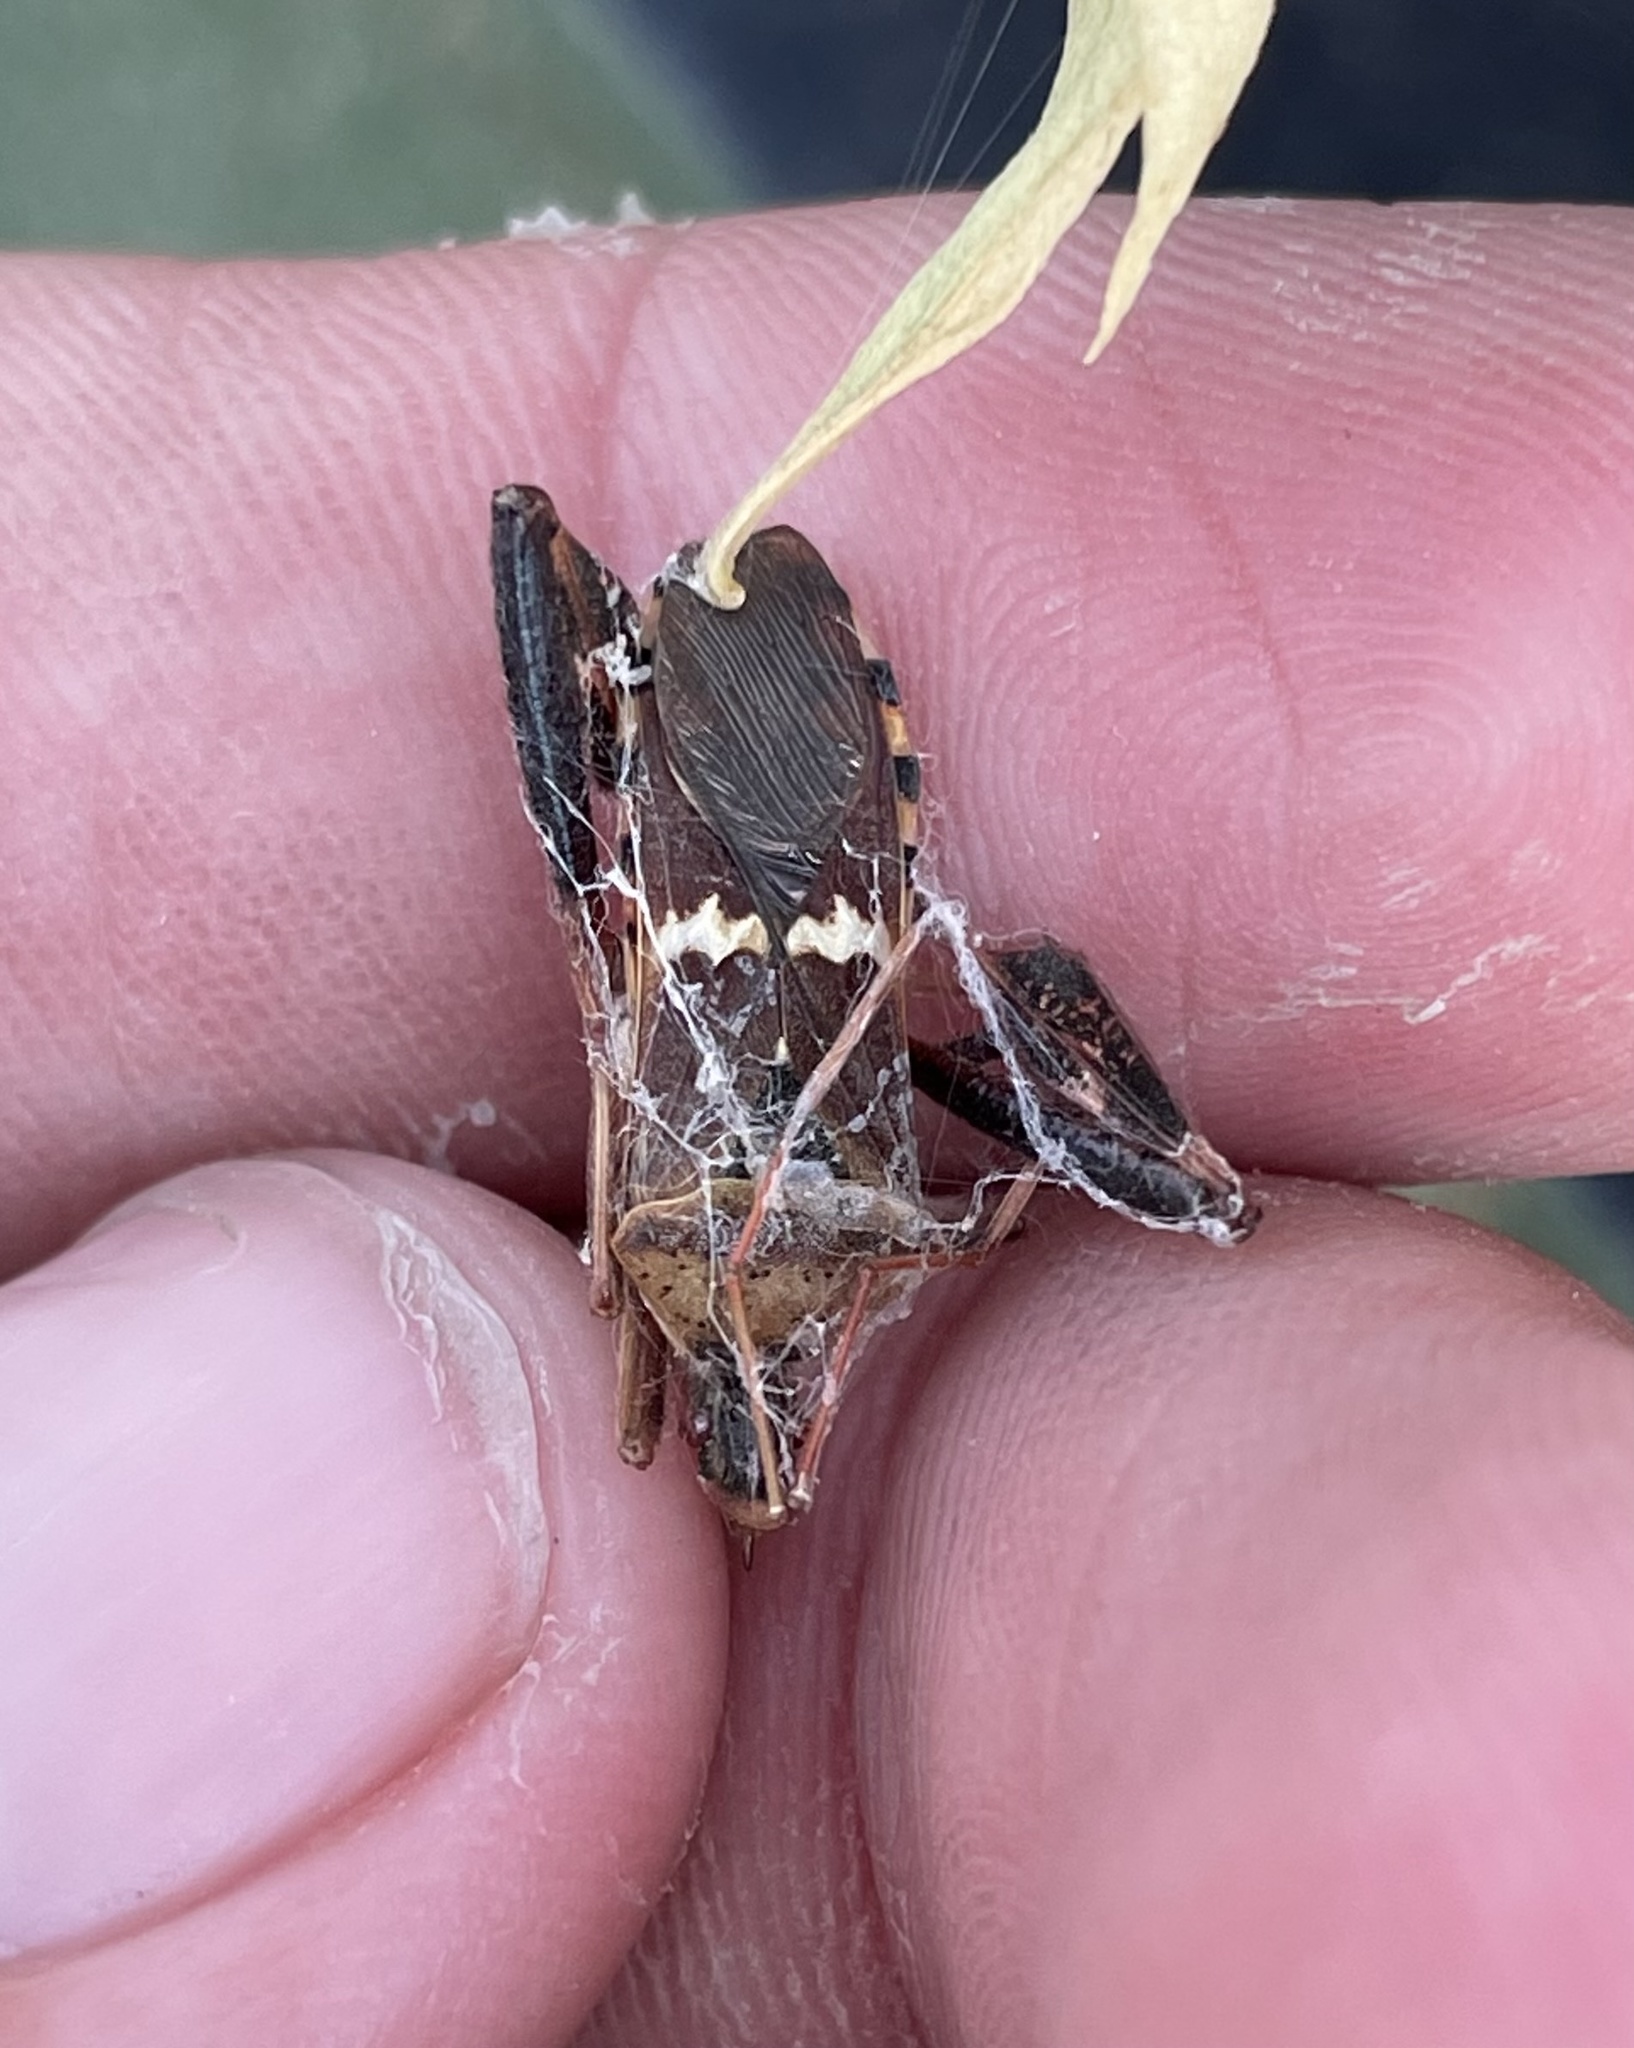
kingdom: Animalia
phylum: Arthropoda
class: Insecta
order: Hemiptera
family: Coreidae
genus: Leptoglossus
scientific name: Leptoglossus clypealis
